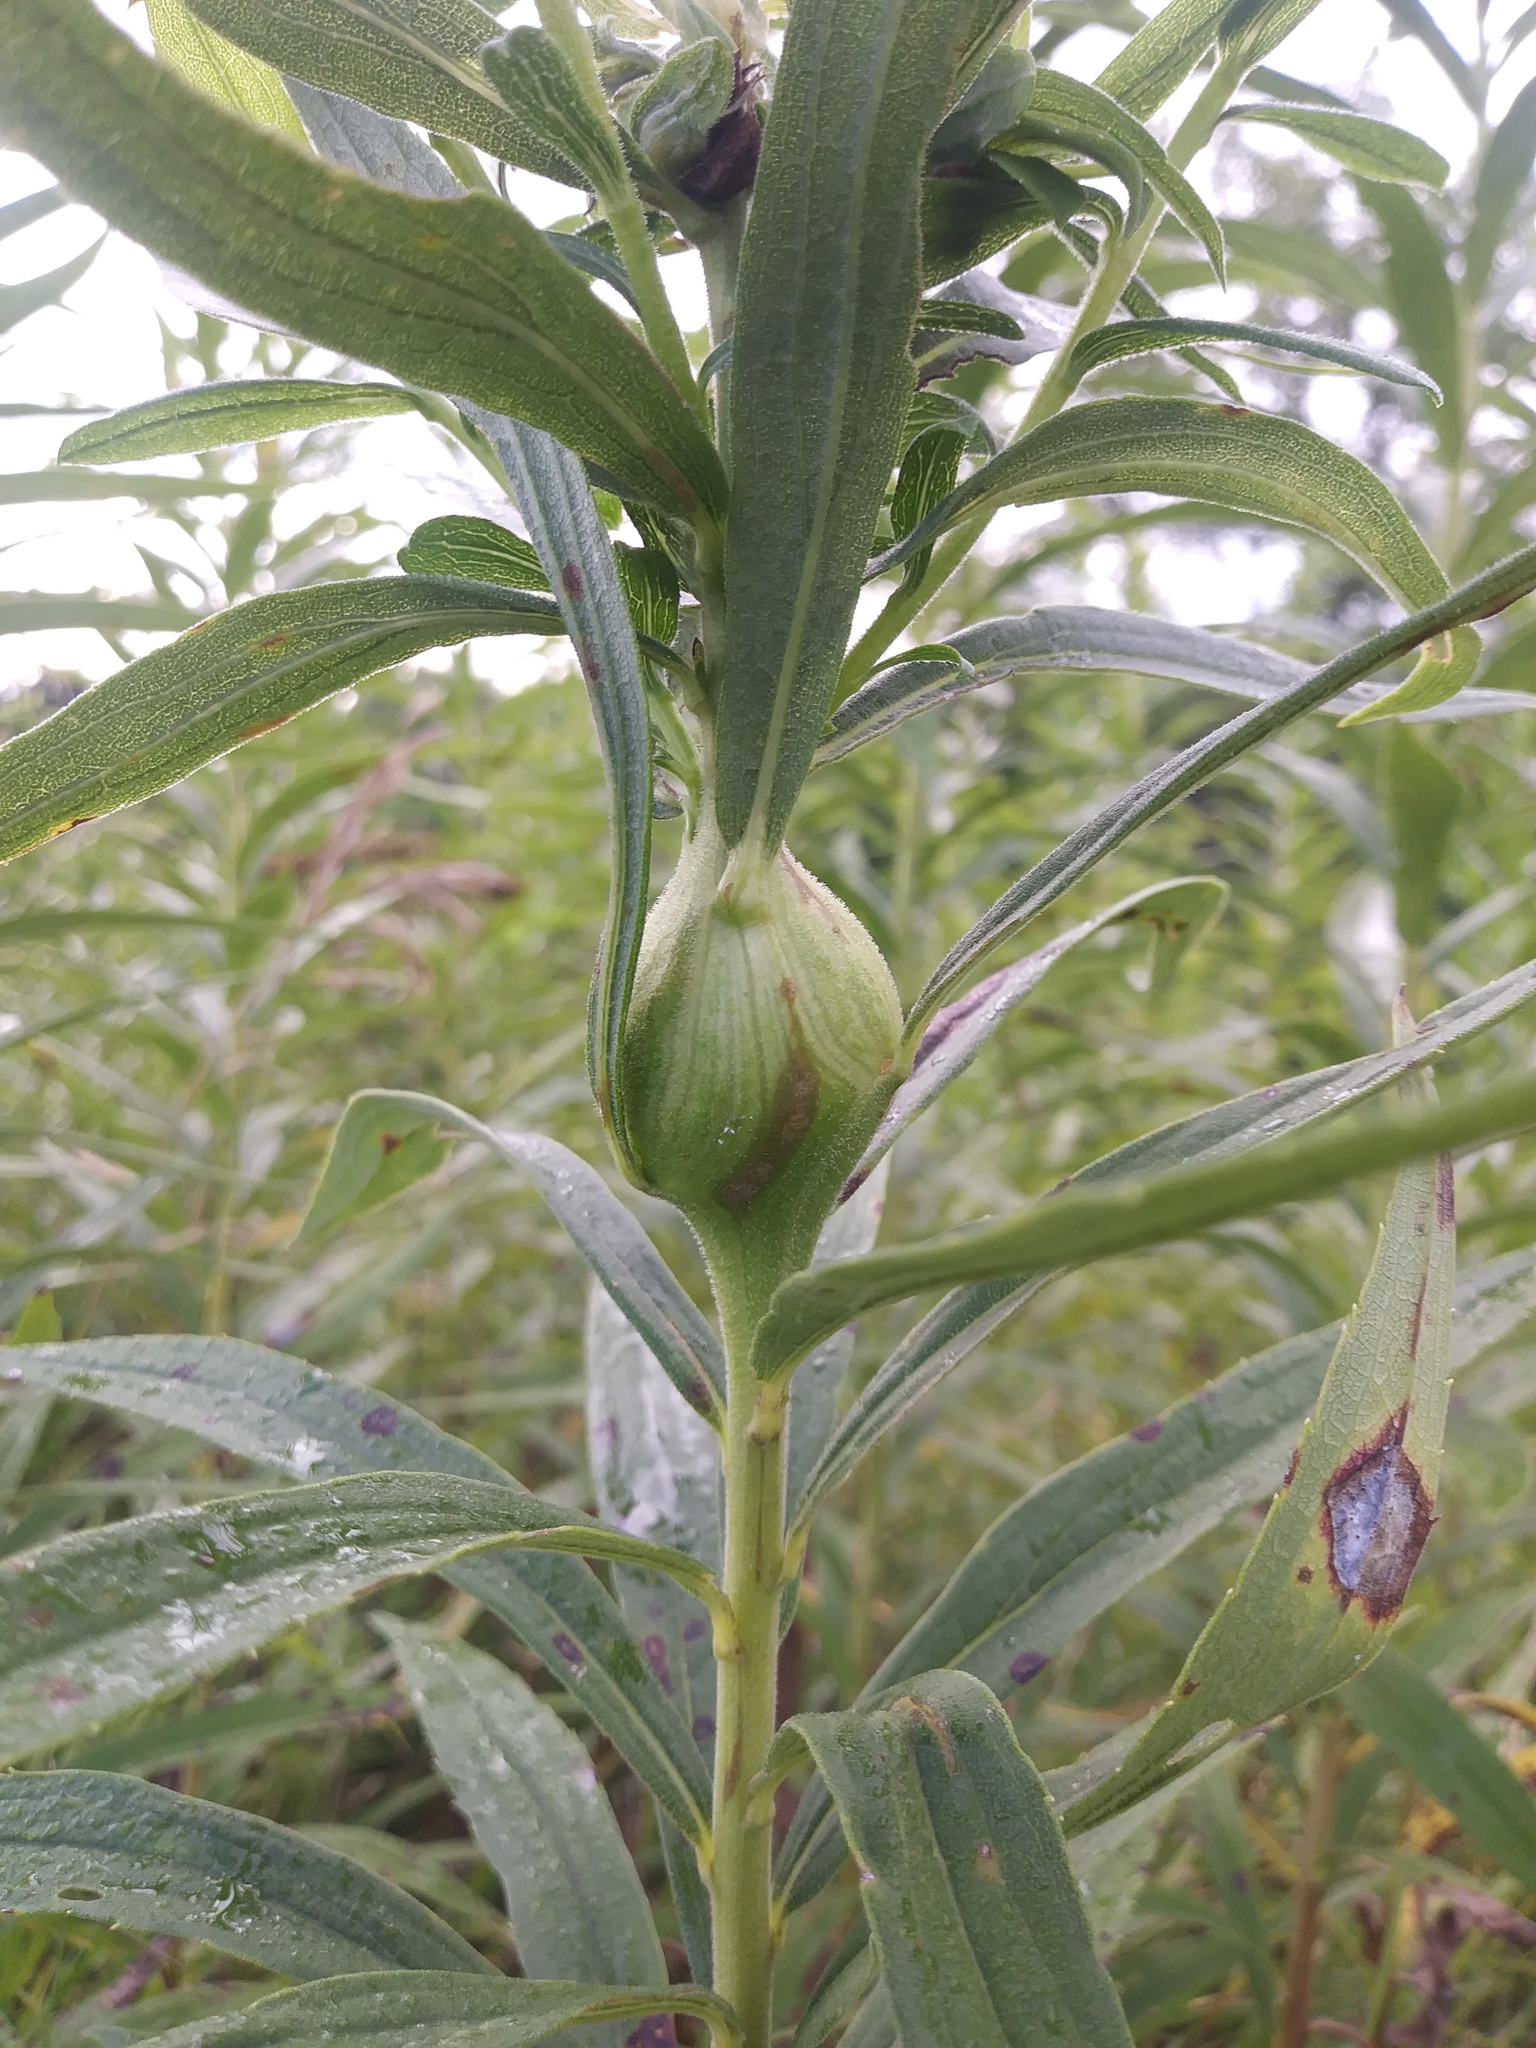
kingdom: Animalia
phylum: Arthropoda
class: Insecta
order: Diptera
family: Tephritidae
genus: Eurosta
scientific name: Eurosta solidaginis
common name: Goldenrod gall fly
